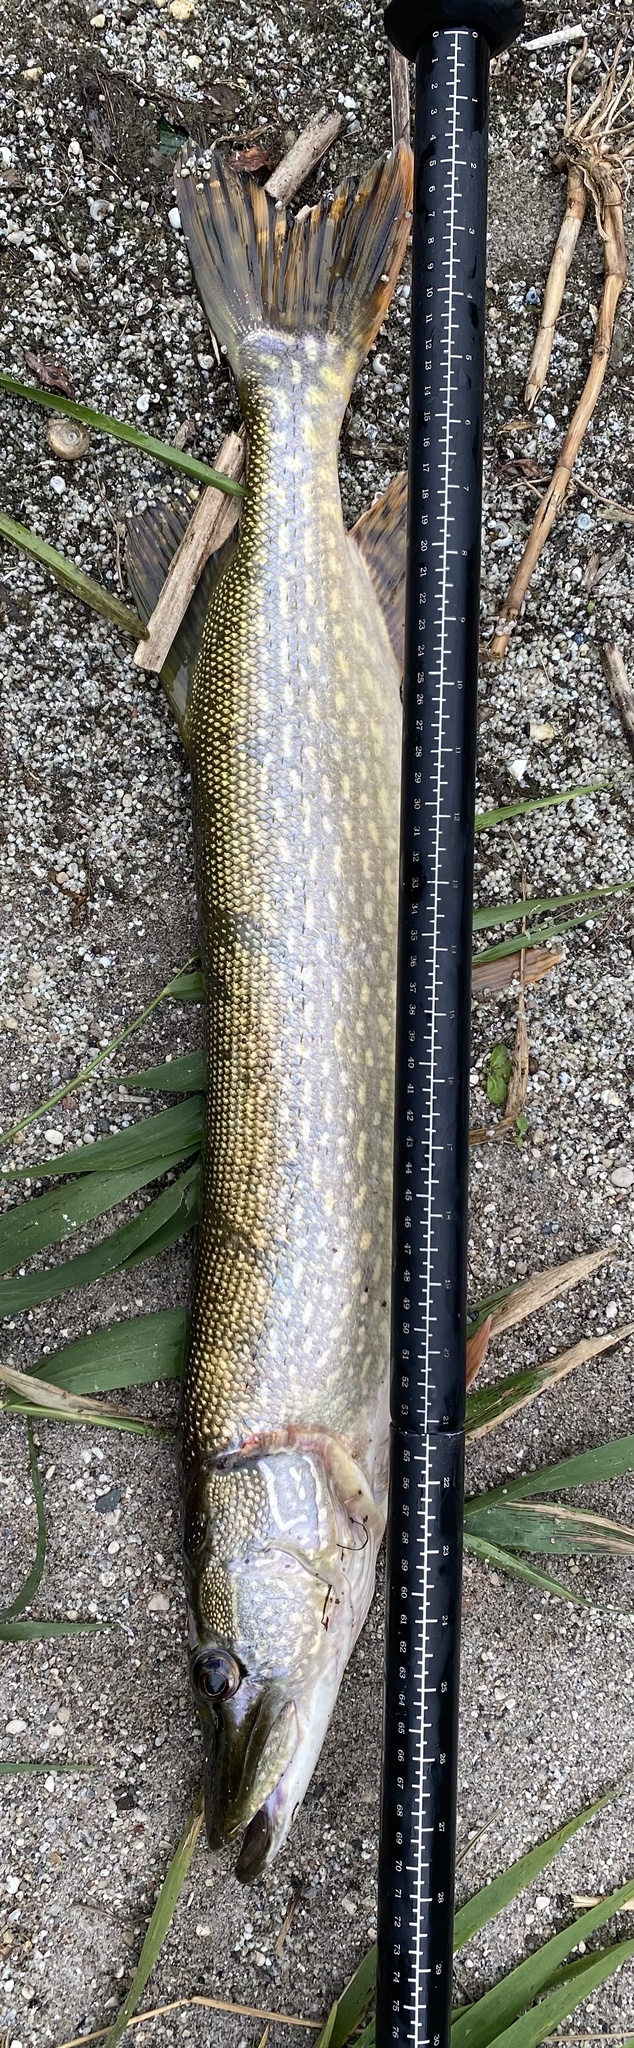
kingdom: Animalia
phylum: Chordata
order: Esociformes
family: Esocidae
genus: Esox
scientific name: Esox lucius
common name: Northern pike
